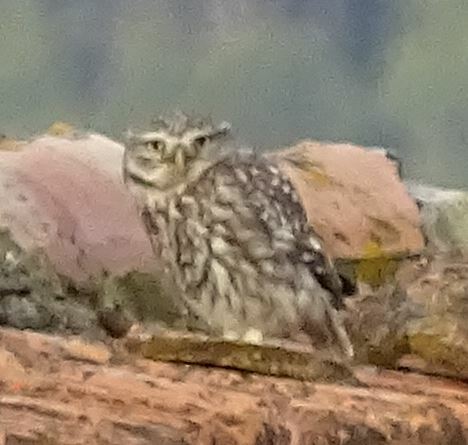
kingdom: Animalia
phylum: Chordata
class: Aves
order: Strigiformes
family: Strigidae
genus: Athene
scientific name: Athene noctua
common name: Little owl
